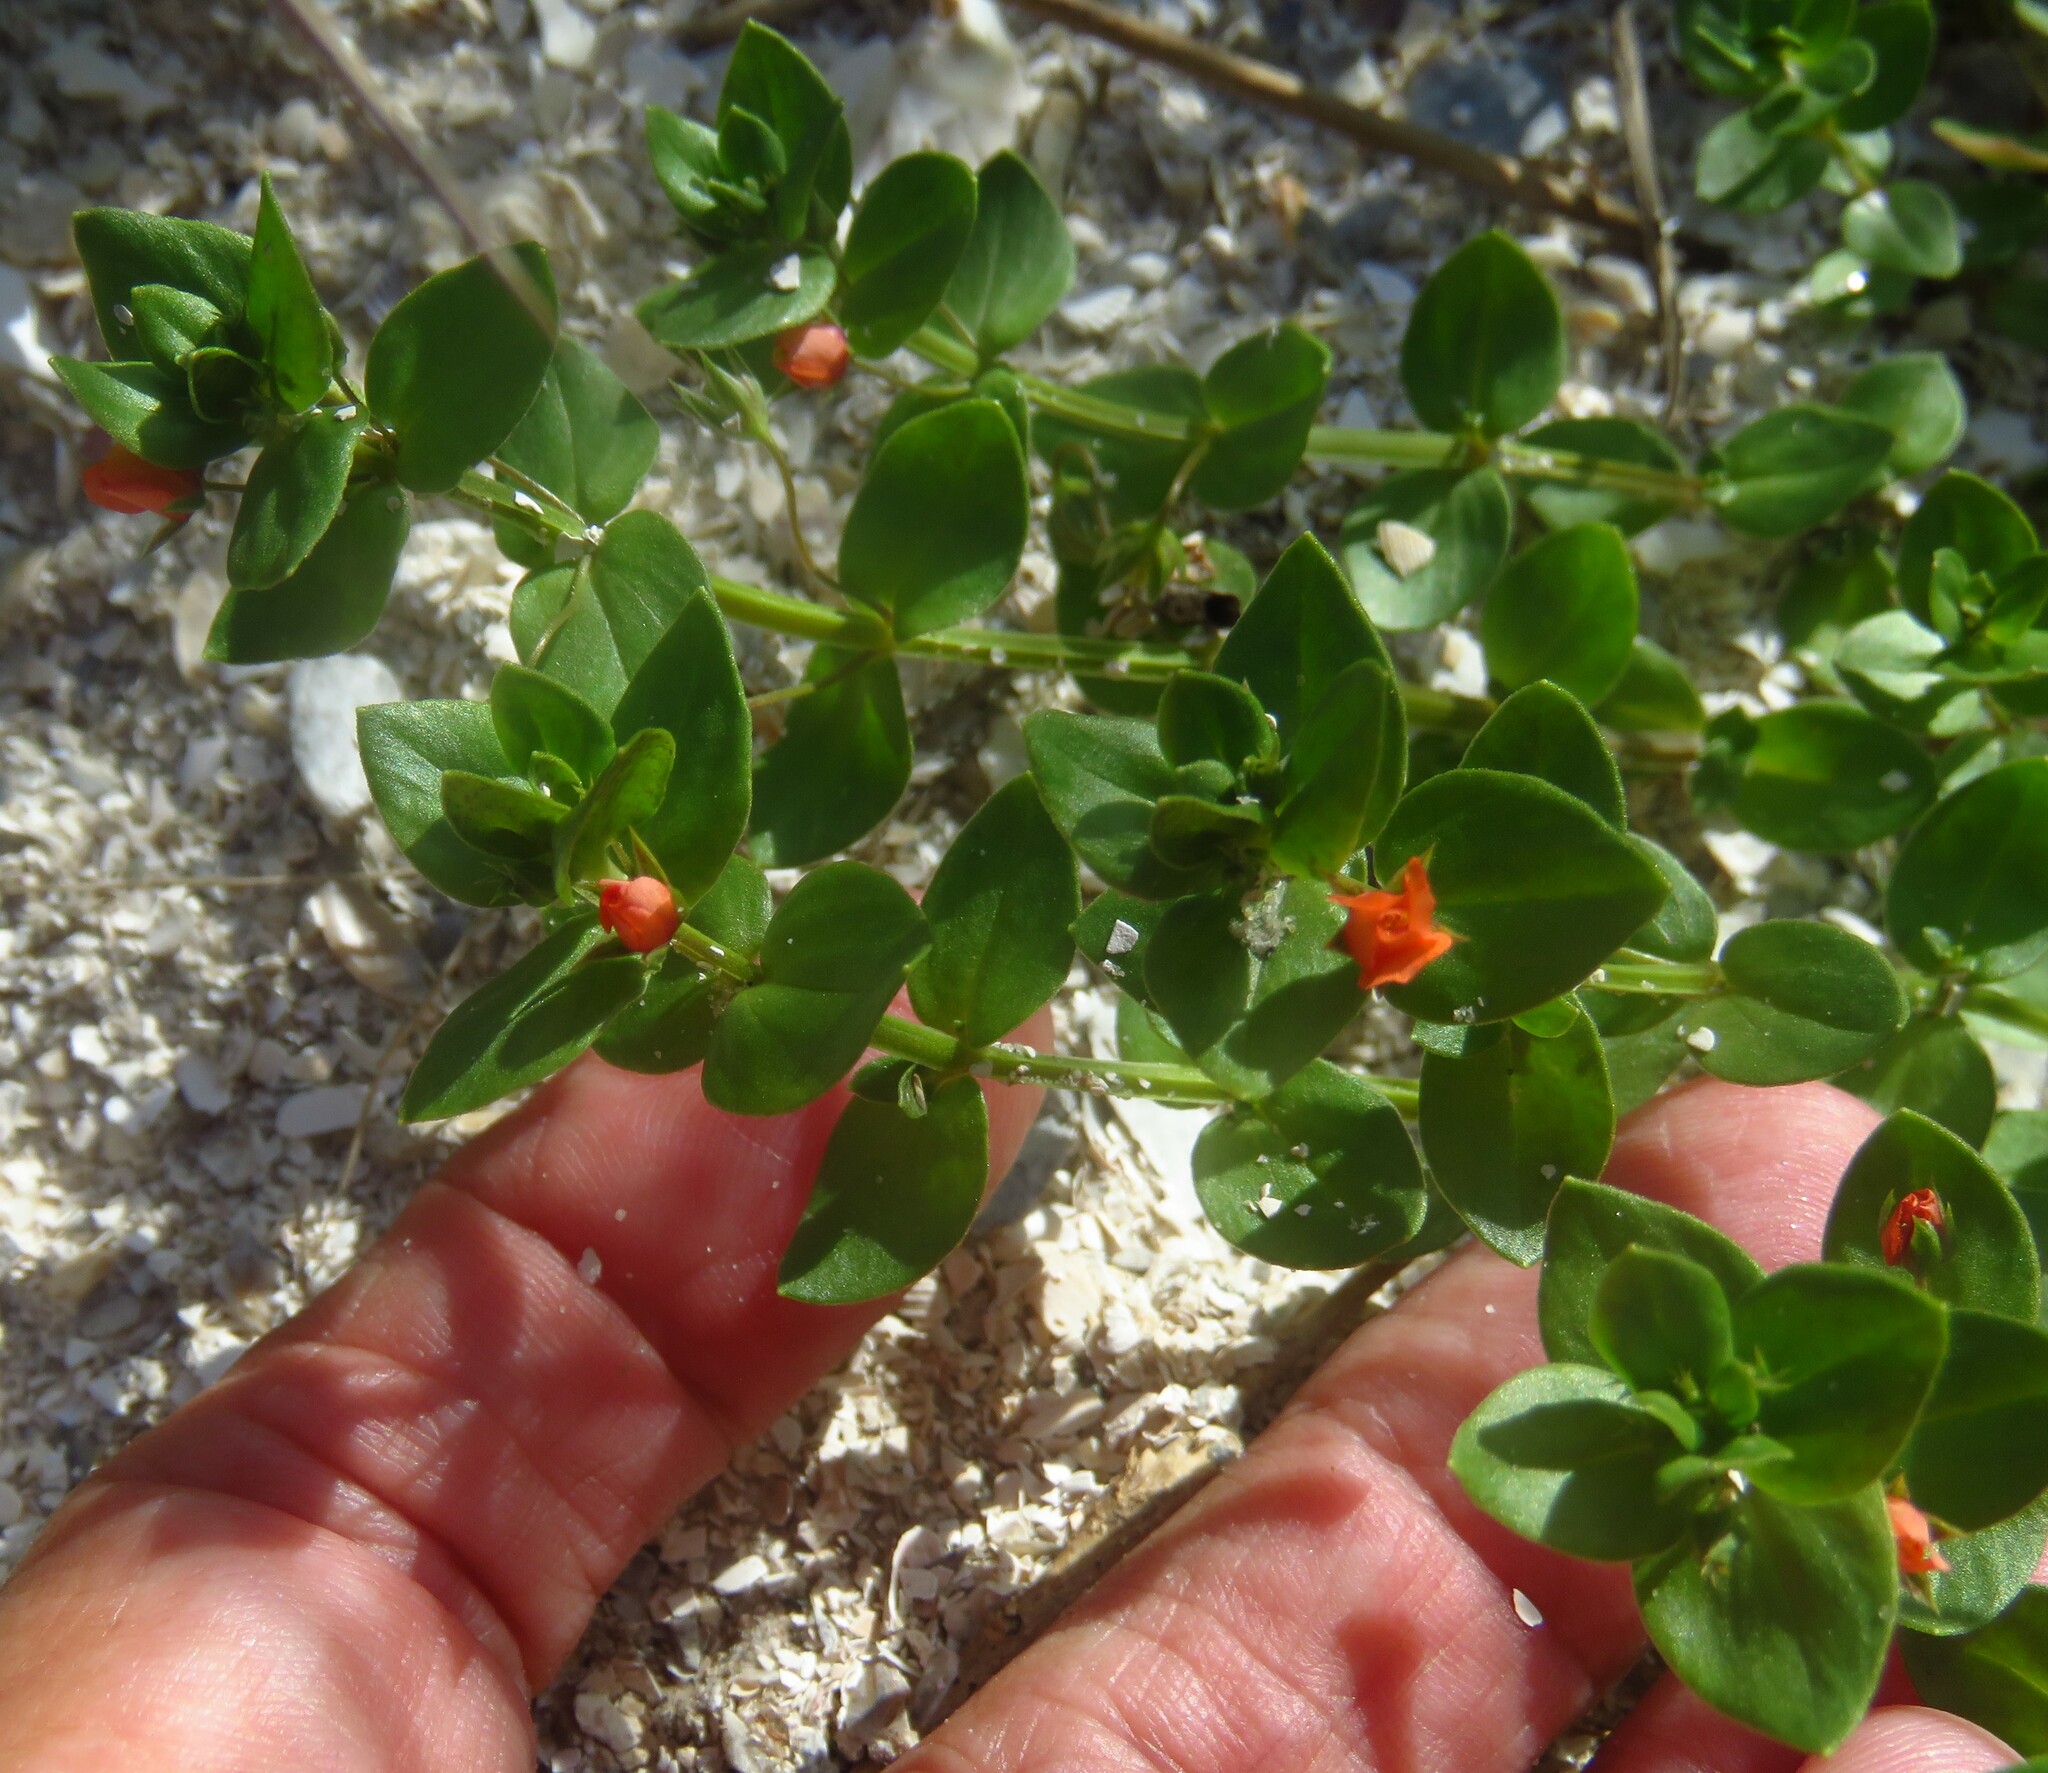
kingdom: Plantae
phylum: Tracheophyta
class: Magnoliopsida
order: Ericales
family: Primulaceae
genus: Lysimachia
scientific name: Lysimachia arvensis
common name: Scarlet pimpernel
